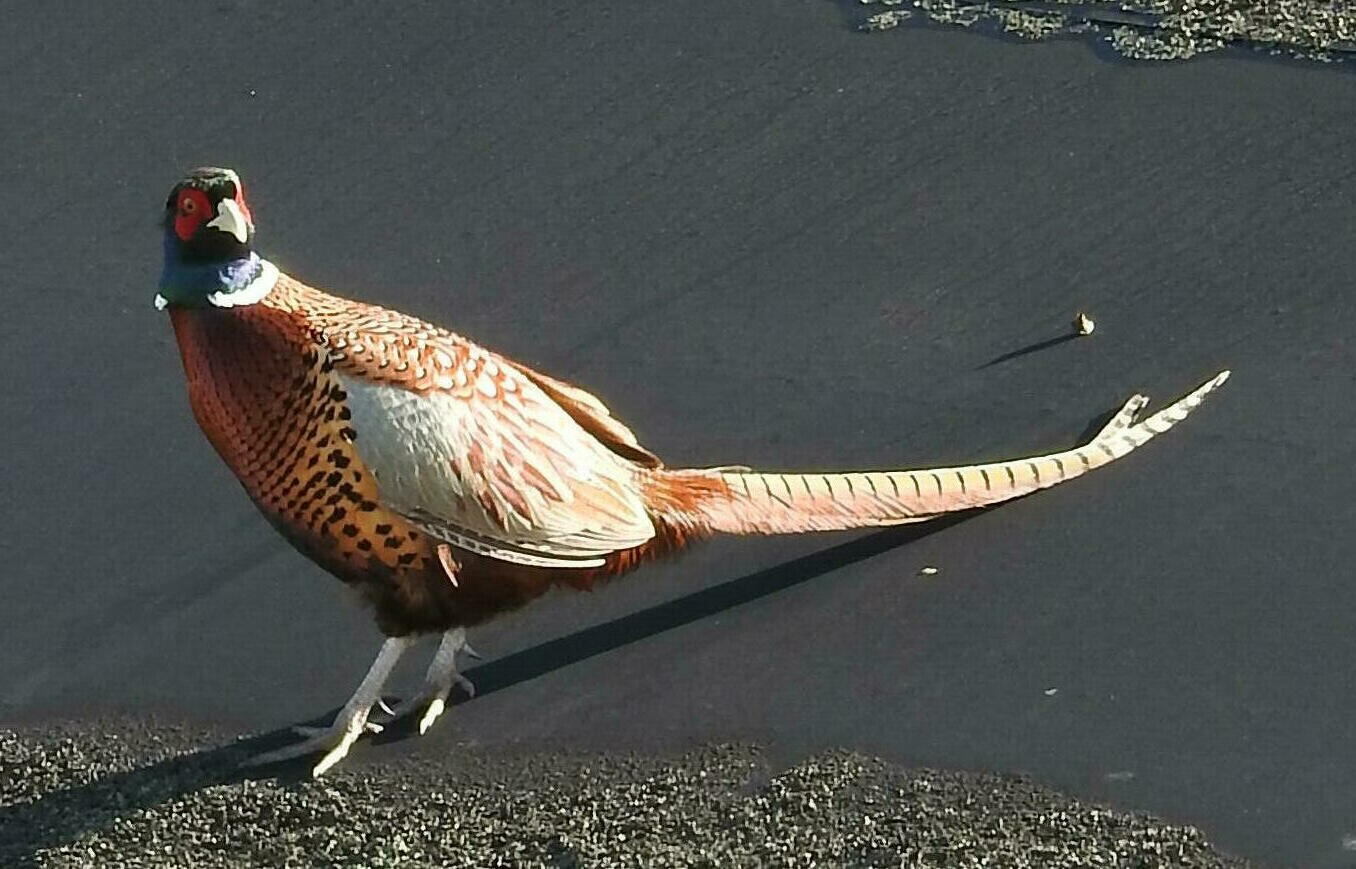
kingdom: Animalia
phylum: Chordata
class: Aves
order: Galliformes
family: Phasianidae
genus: Phasianus
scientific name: Phasianus colchicus
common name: Common pheasant
